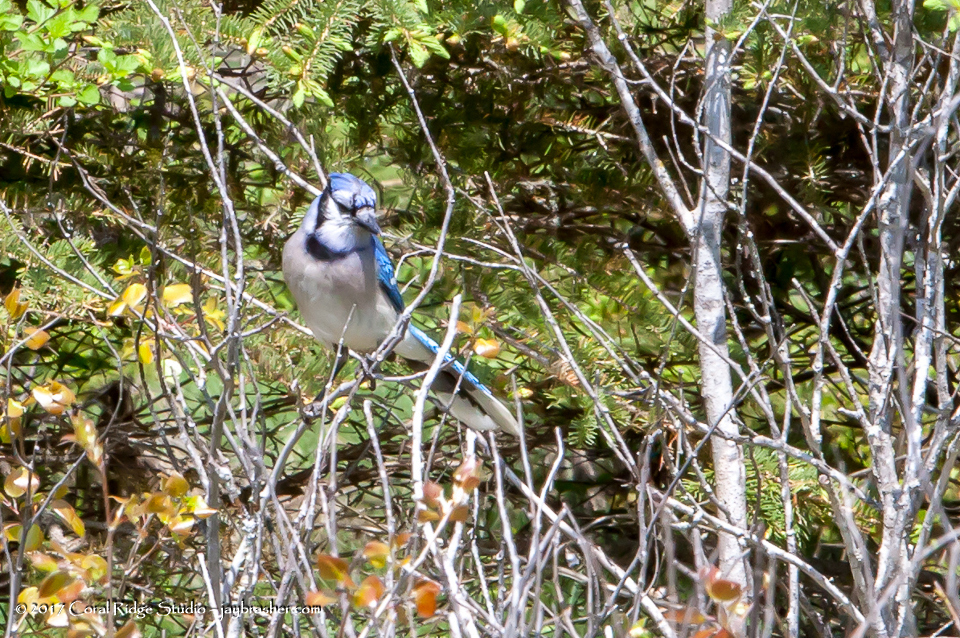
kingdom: Animalia
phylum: Chordata
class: Aves
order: Passeriformes
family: Corvidae
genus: Cyanocitta
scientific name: Cyanocitta cristata
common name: Blue jay
